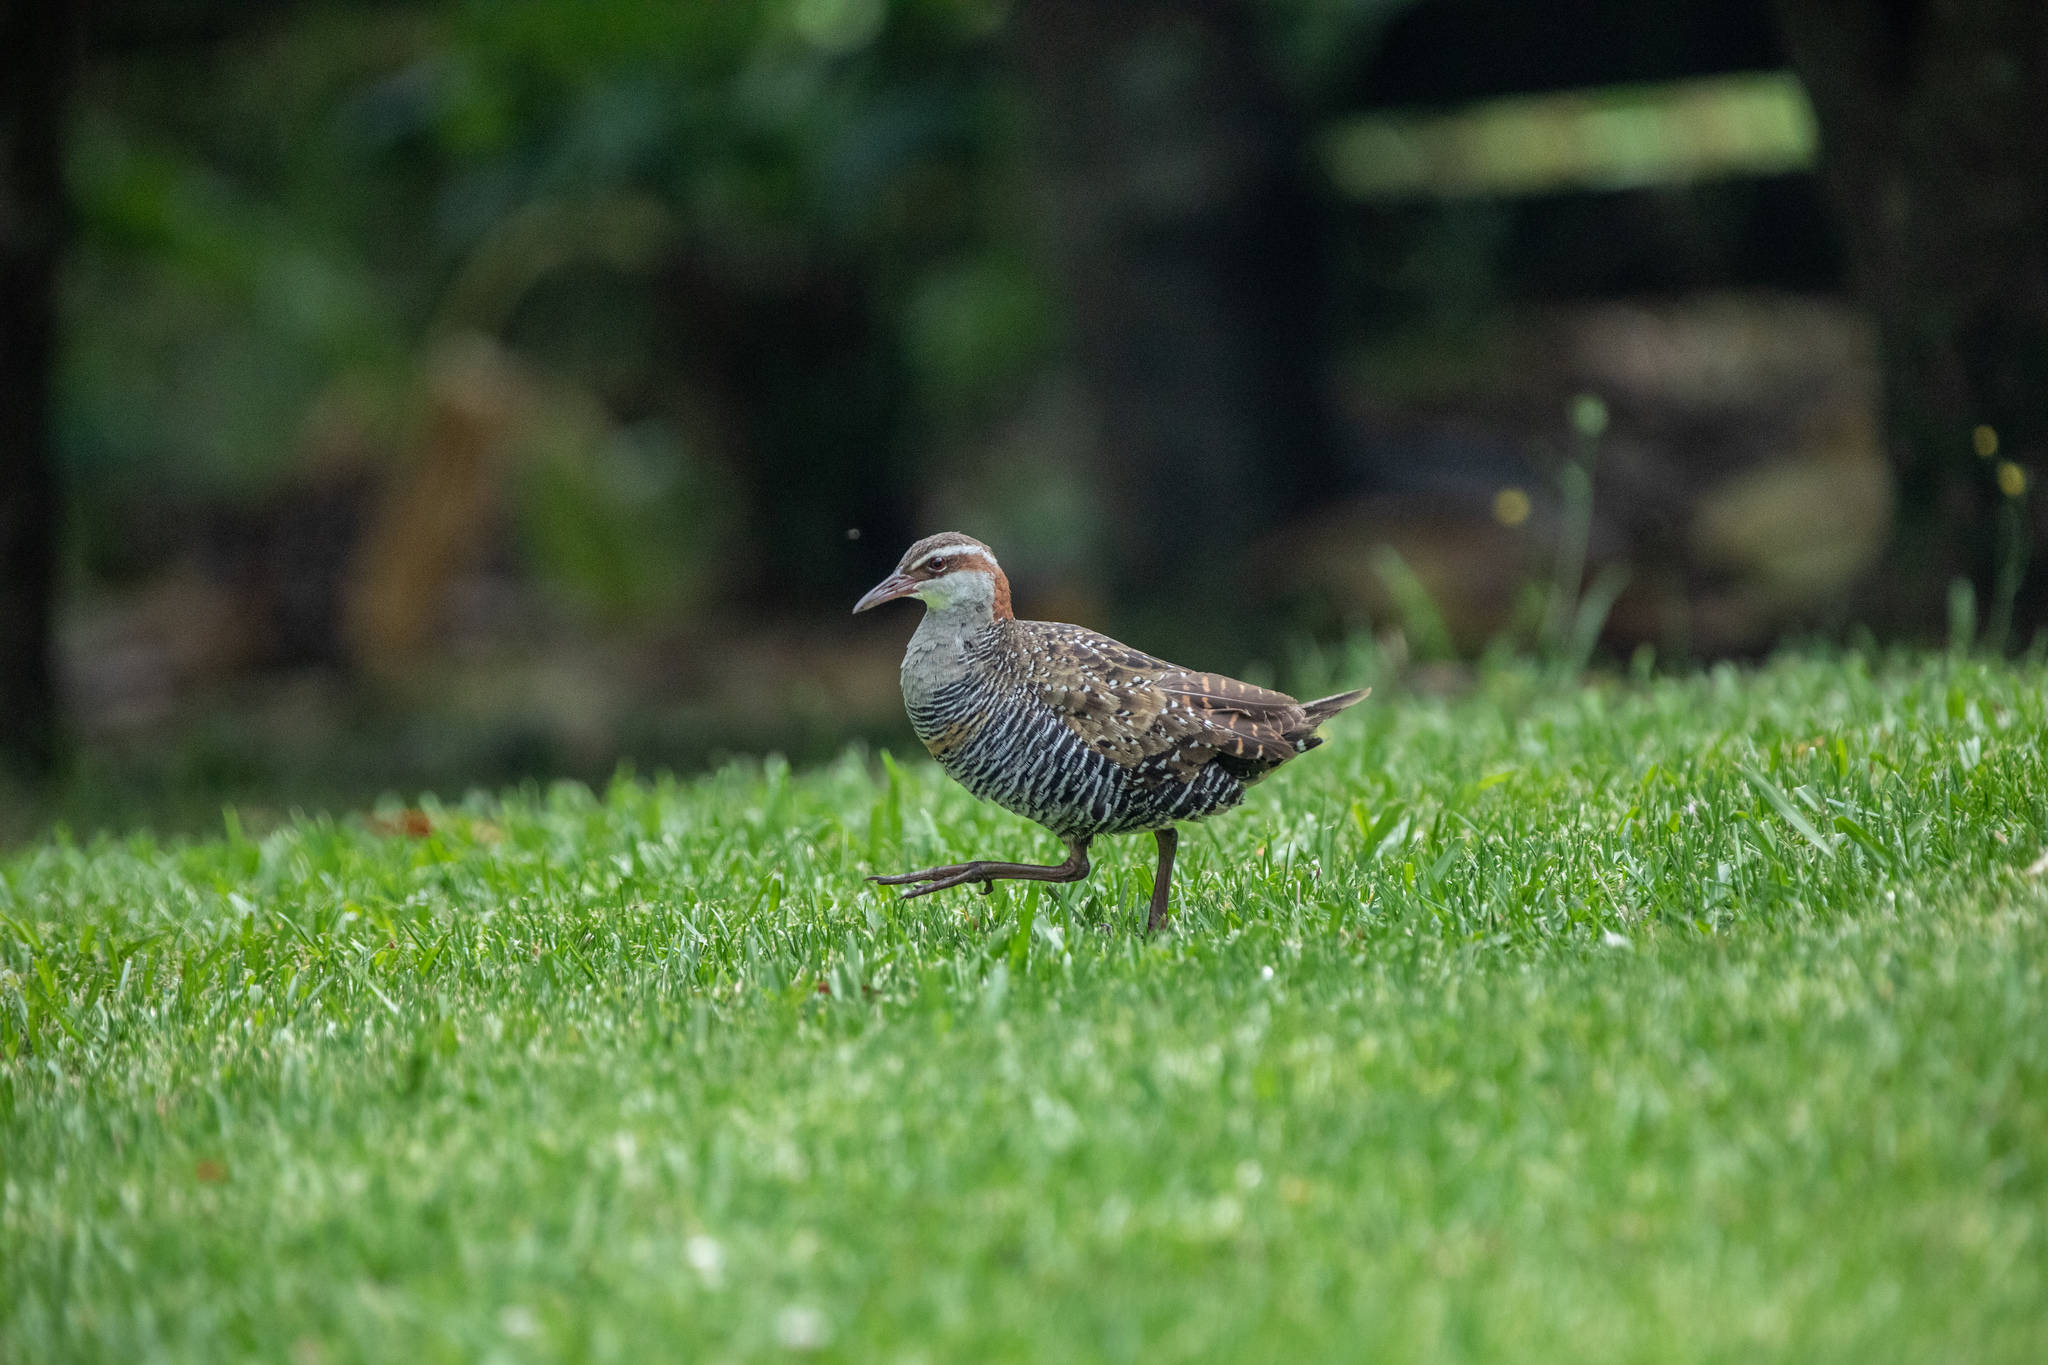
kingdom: Animalia
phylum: Chordata
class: Aves
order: Gruiformes
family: Rallidae
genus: Gallirallus
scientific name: Gallirallus philippensis
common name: Buff-banded rail
